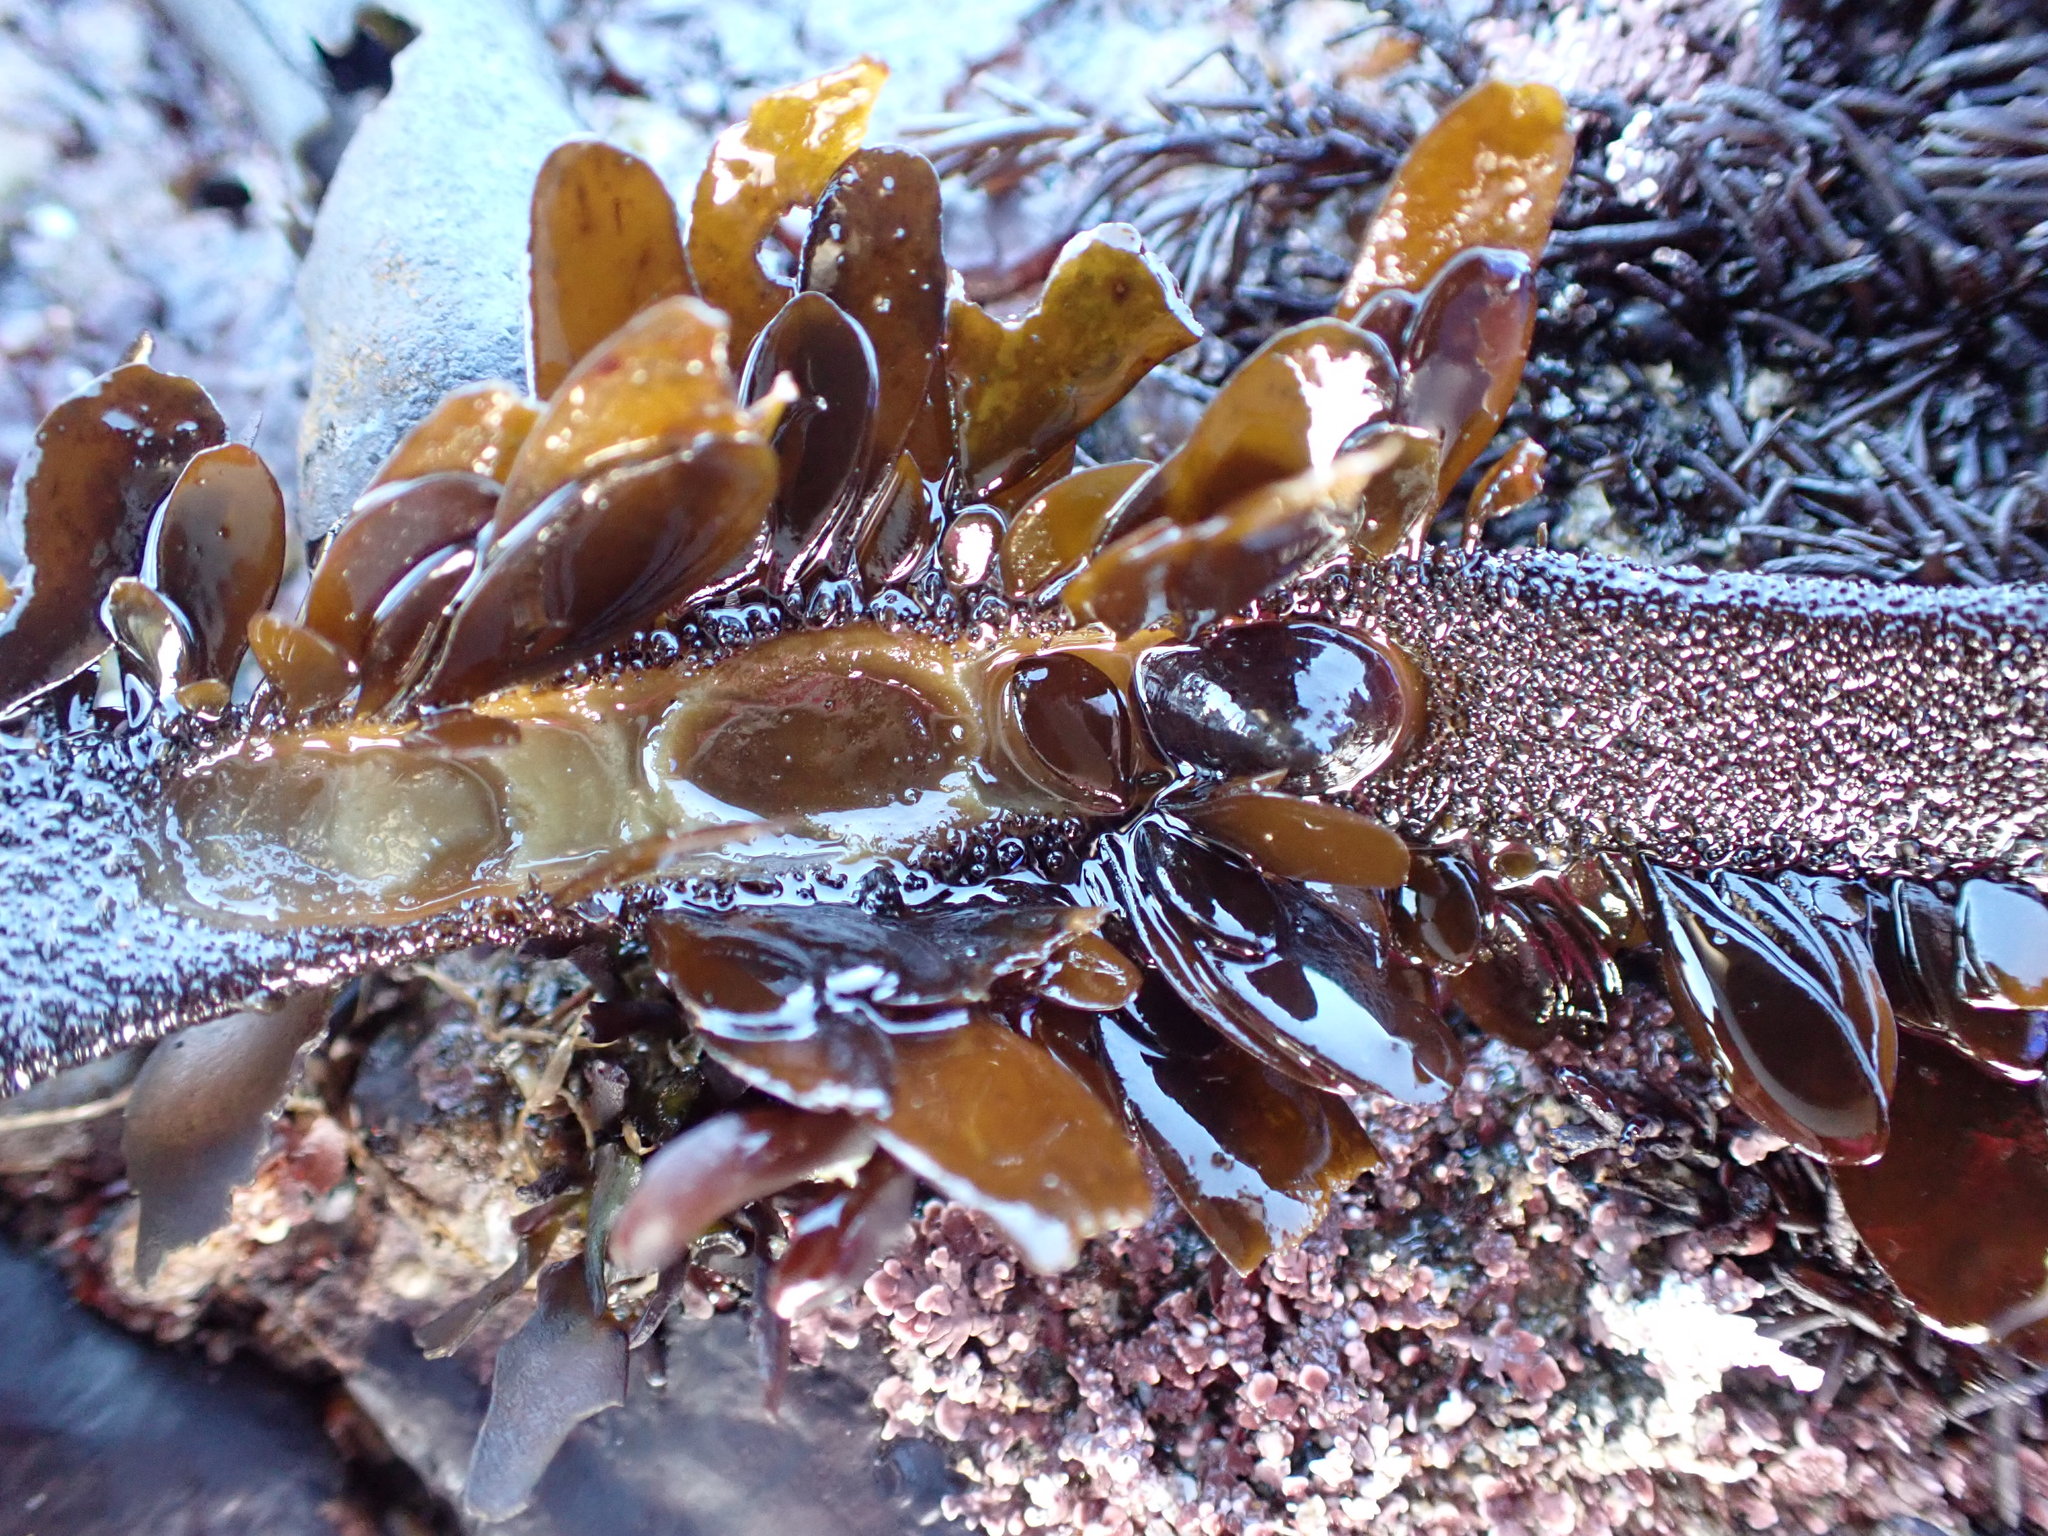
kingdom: Animalia
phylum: Mollusca
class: Gastropoda
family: Lottiidae
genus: Discurria
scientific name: Discurria insessa
